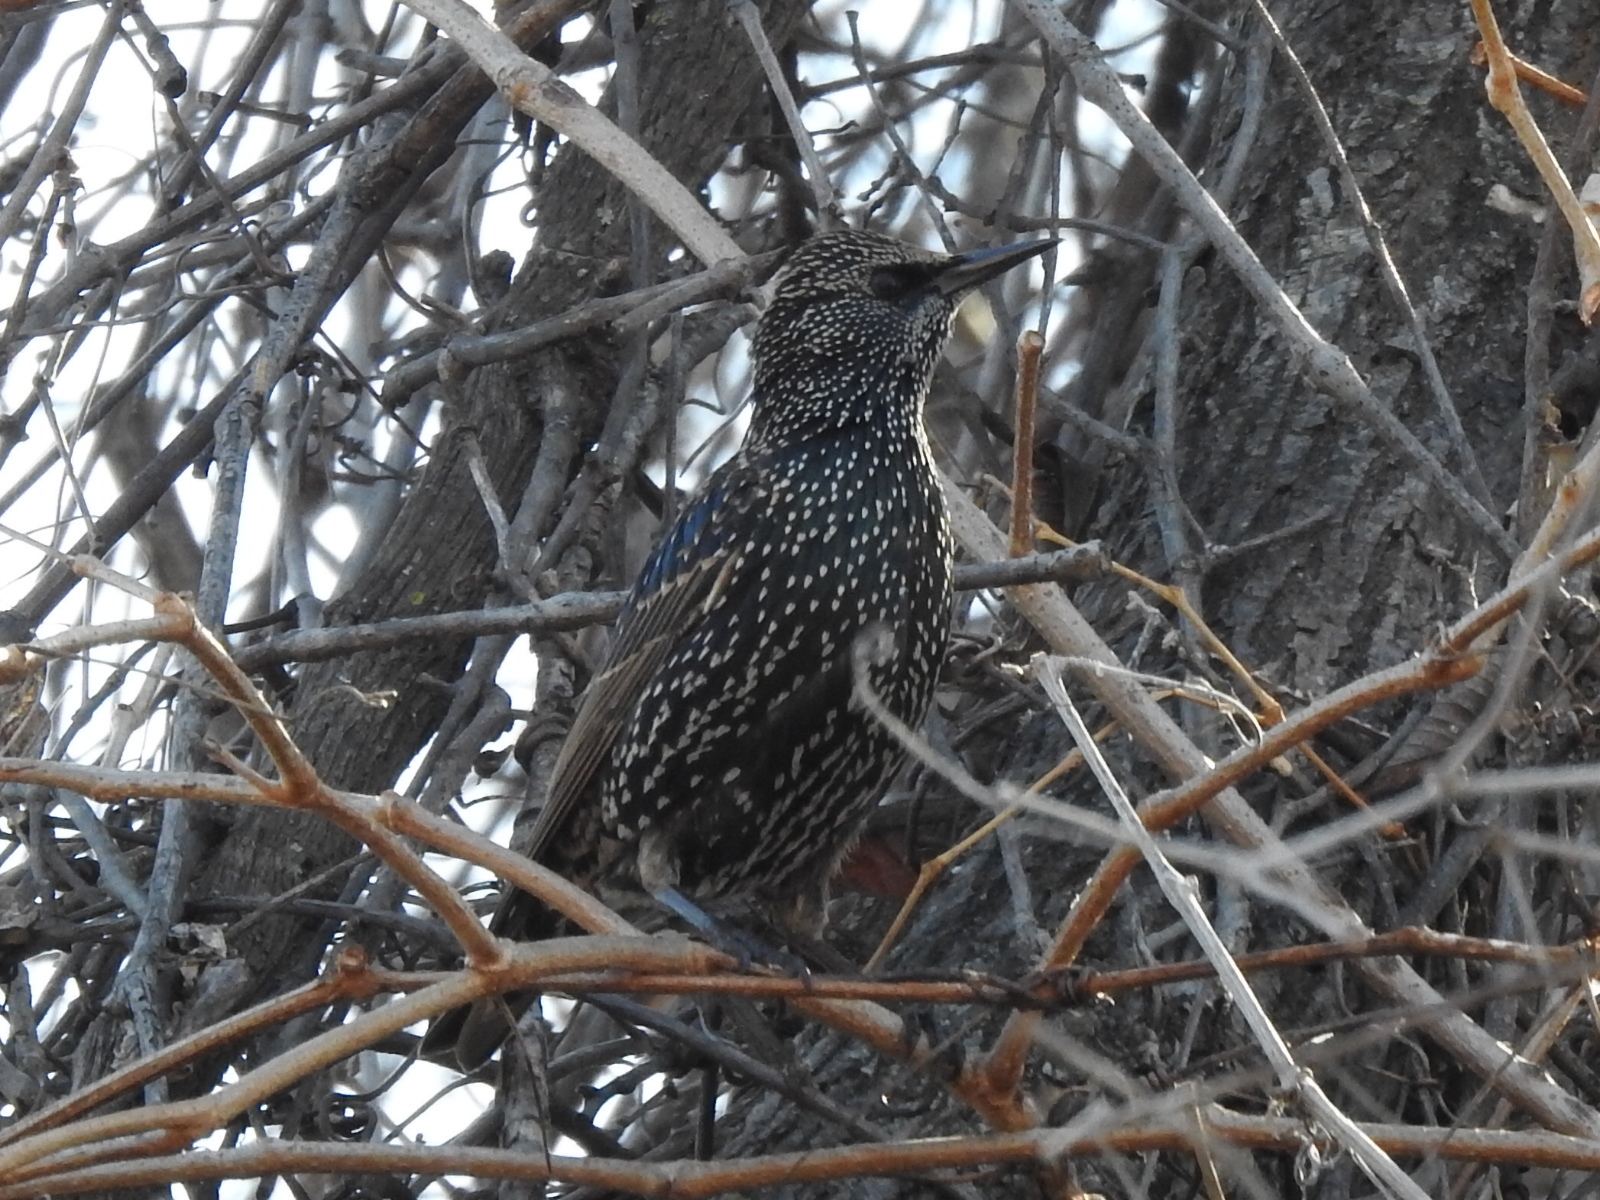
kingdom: Animalia
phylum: Chordata
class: Aves
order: Passeriformes
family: Sturnidae
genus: Sturnus
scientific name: Sturnus vulgaris
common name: Common starling
